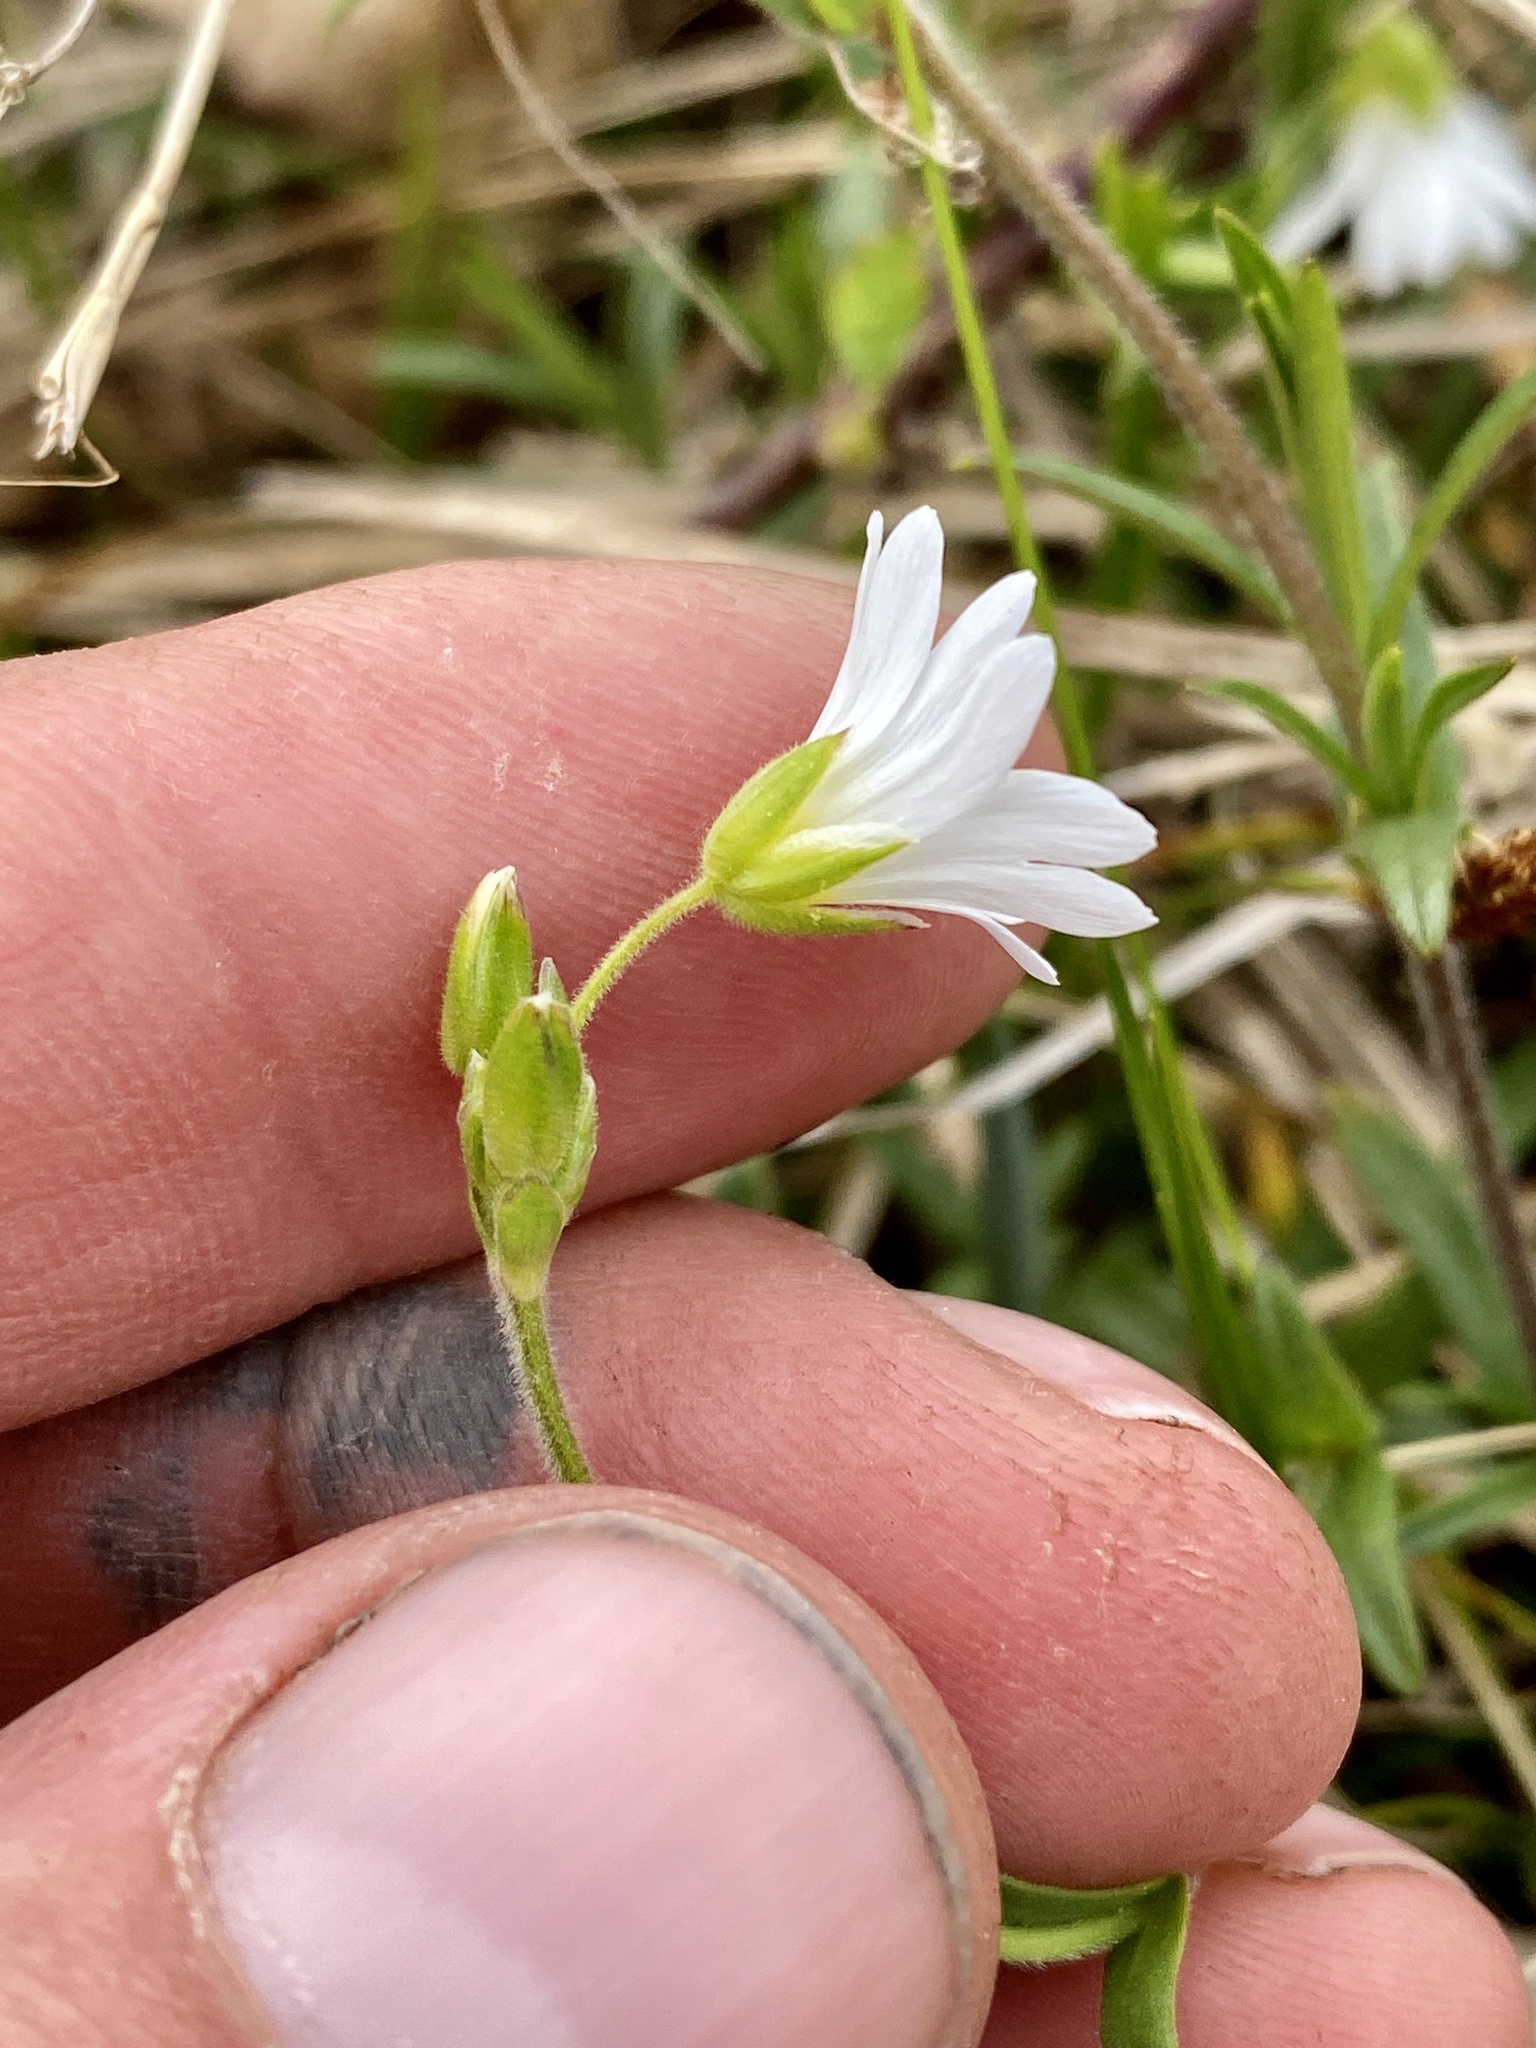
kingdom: Plantae
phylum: Tracheophyta
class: Magnoliopsida
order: Caryophyllales
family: Caryophyllaceae
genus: Cerastium
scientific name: Cerastium velutinum
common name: Barren chickweed
